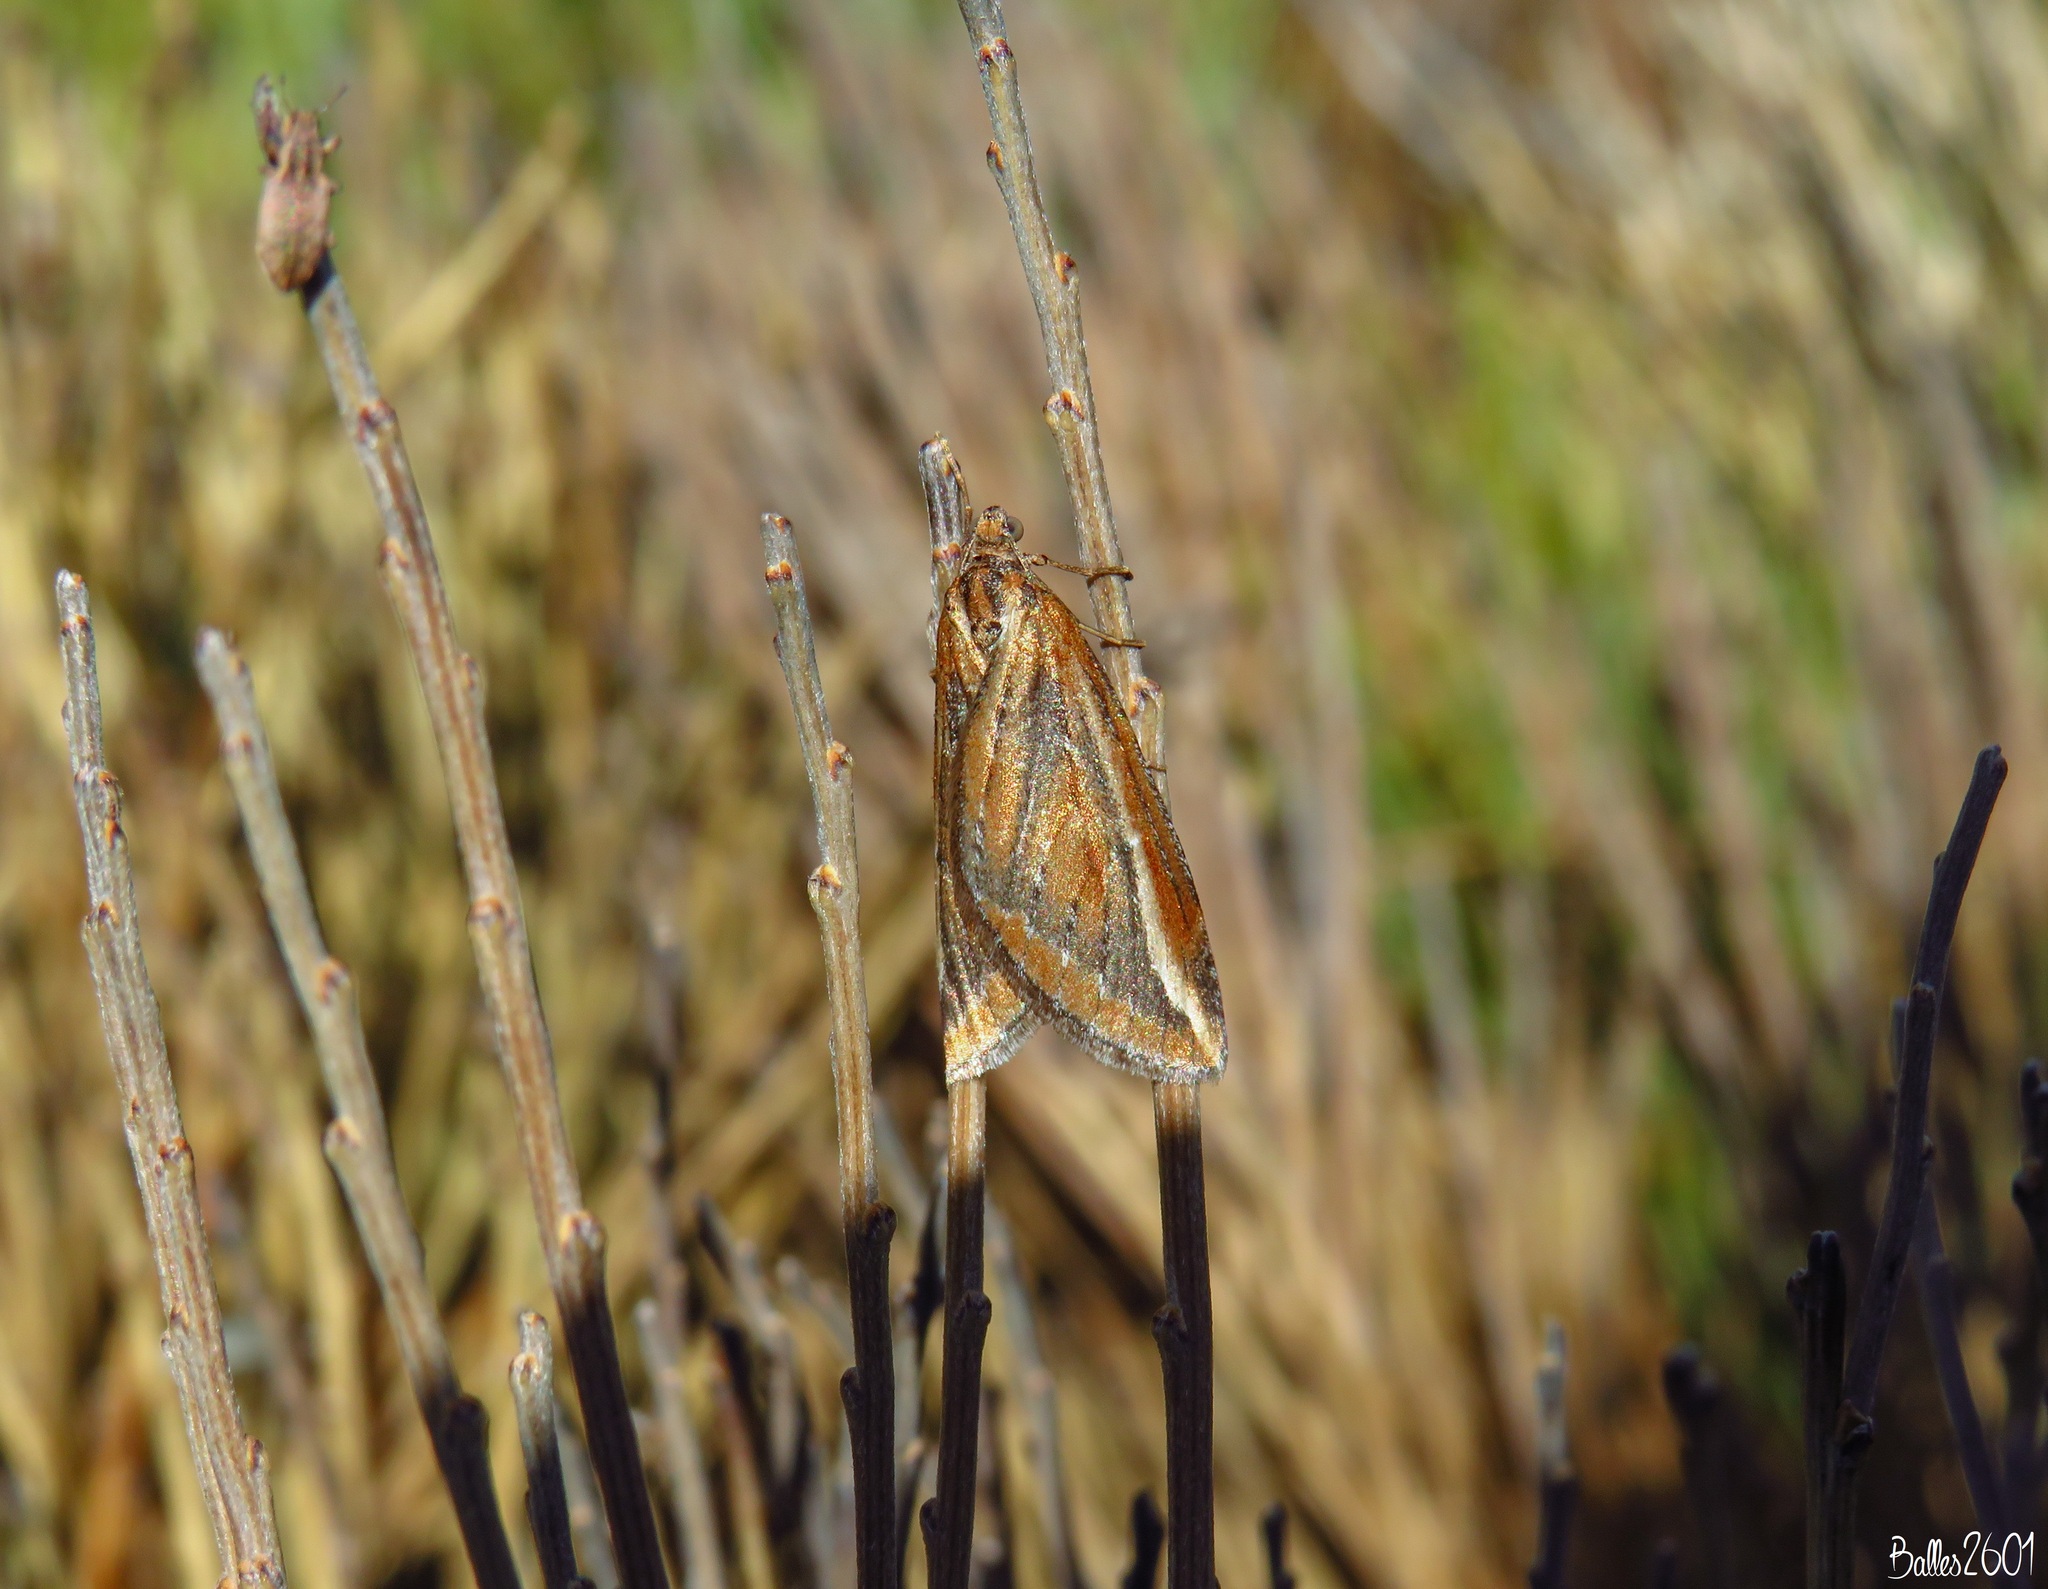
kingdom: Animalia
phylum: Arthropoda
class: Insecta
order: Lepidoptera
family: Geometridae
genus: Chesias
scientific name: Chesias legatella
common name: Streak
